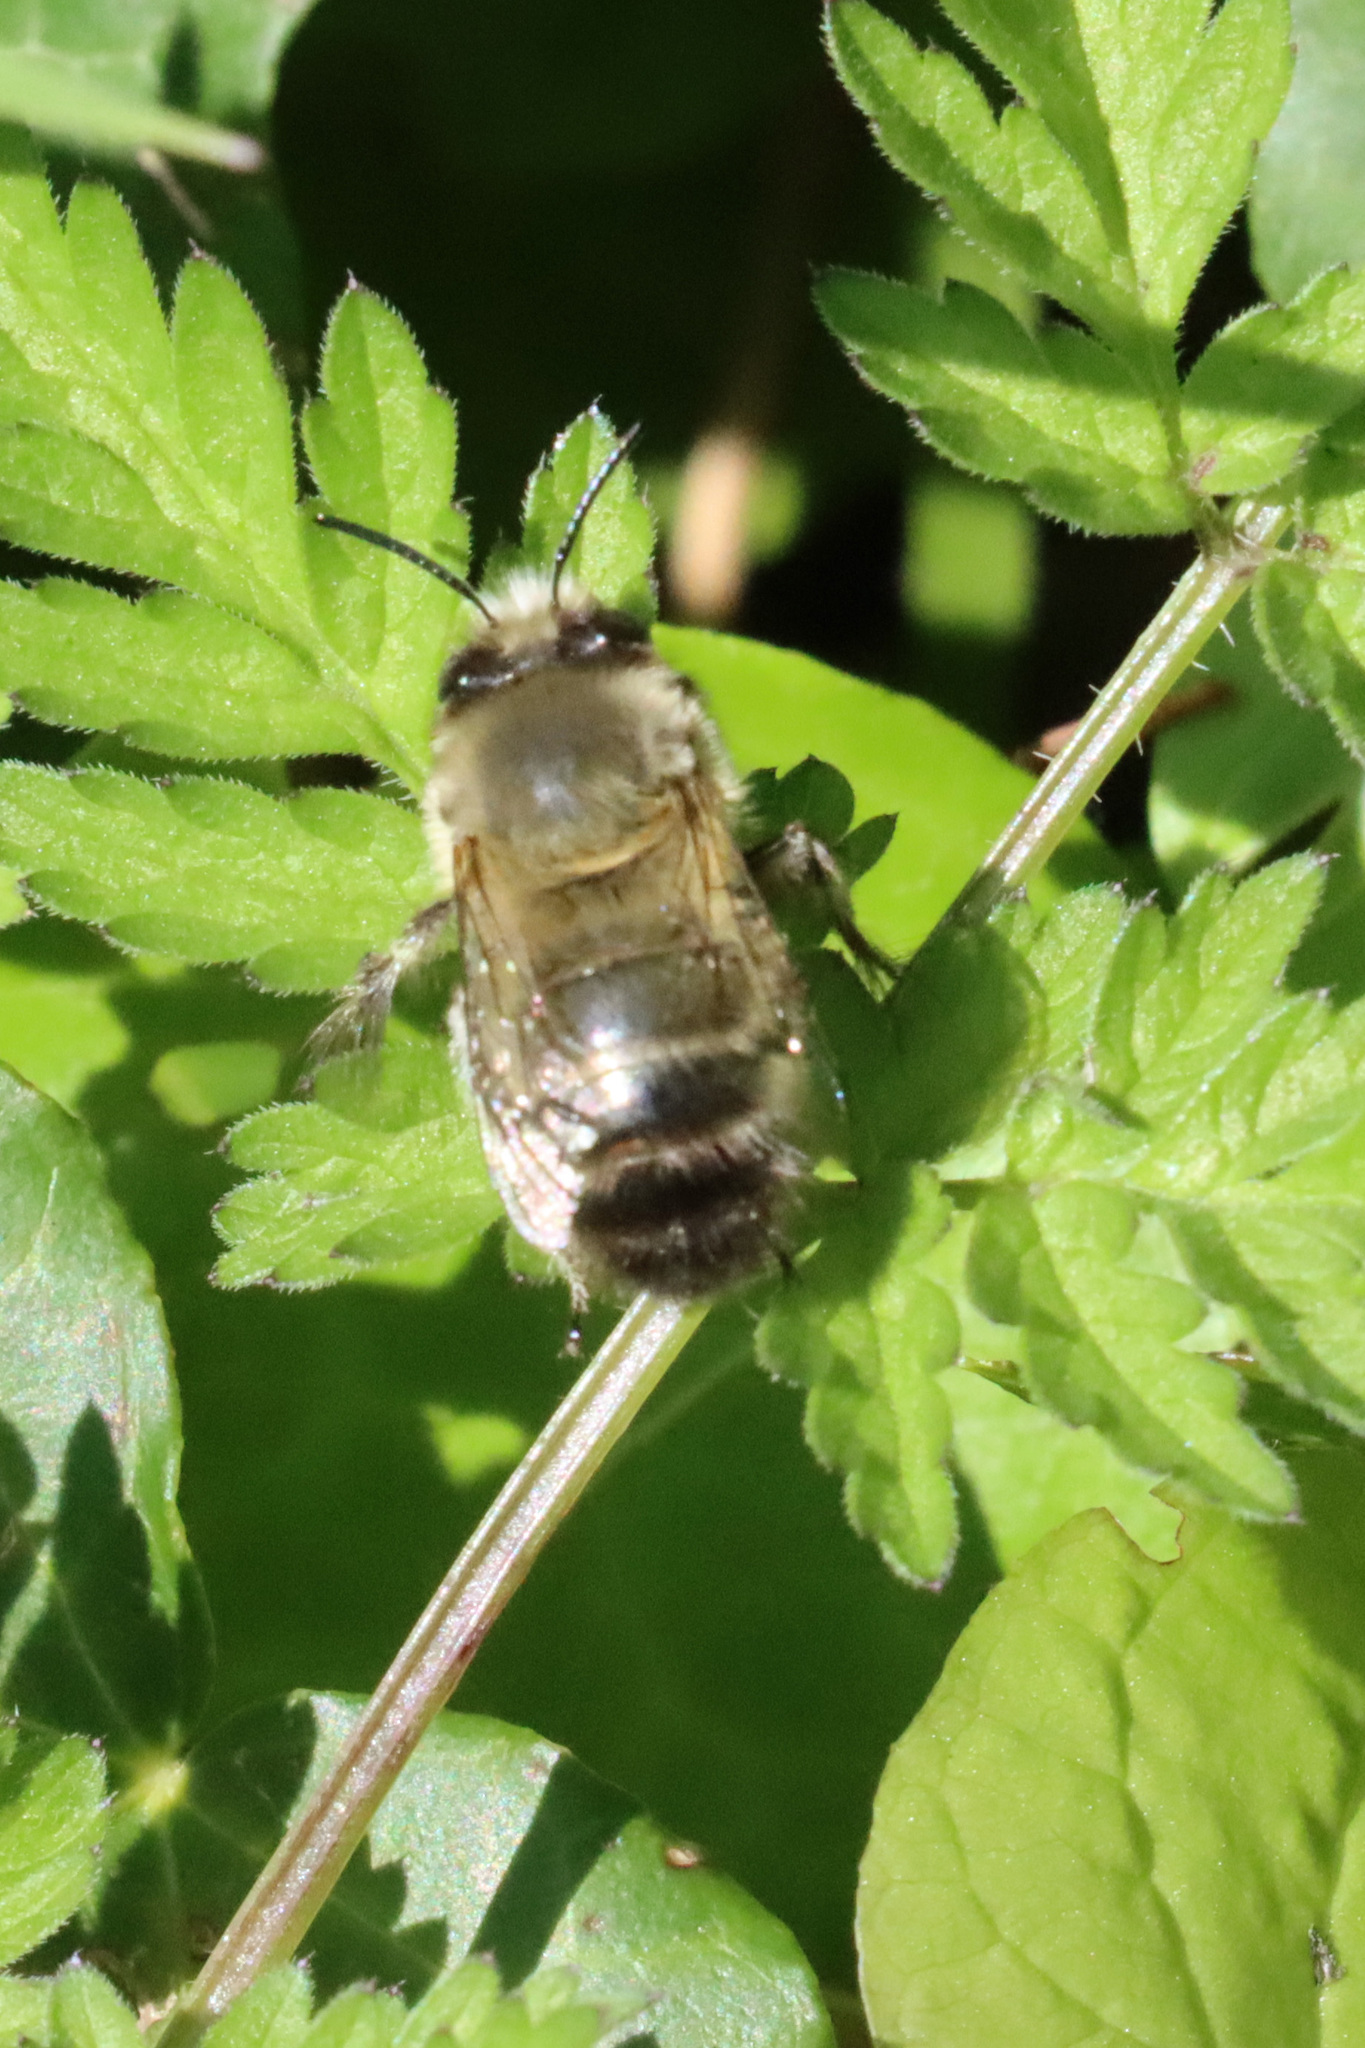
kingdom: Animalia
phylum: Arthropoda
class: Insecta
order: Hymenoptera
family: Apidae
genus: Anthophora
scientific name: Anthophora plumipes
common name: Hairy-footed flower bee
